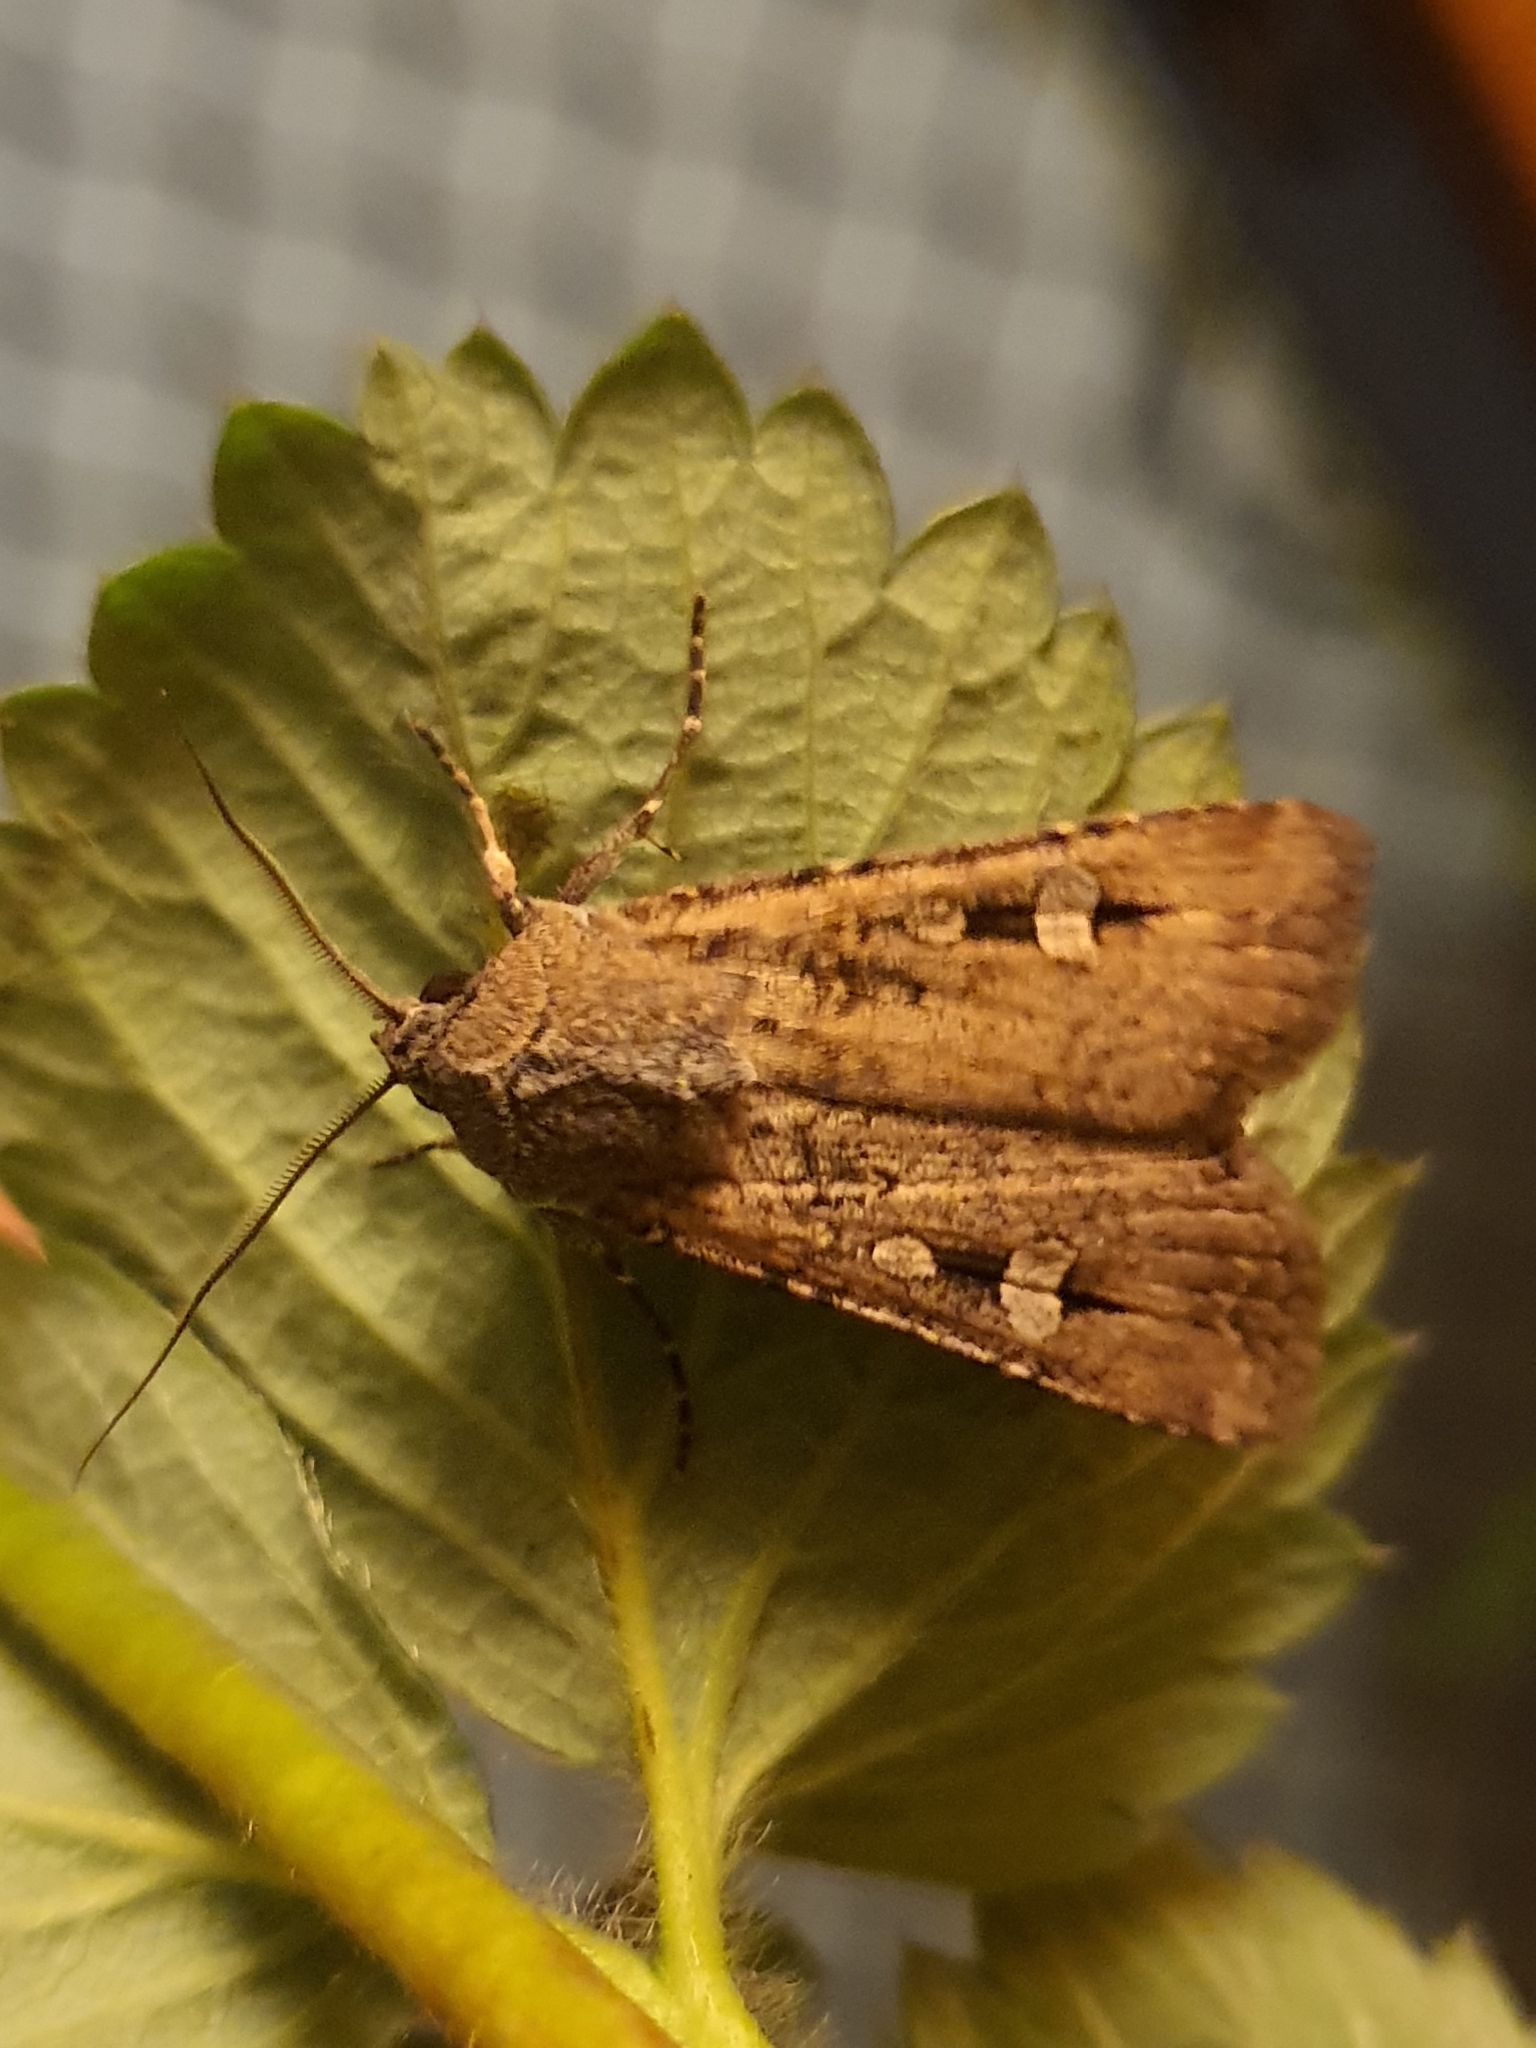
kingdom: Animalia
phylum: Arthropoda
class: Insecta
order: Lepidoptera
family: Noctuidae
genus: Agrotis
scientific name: Agrotis infusa
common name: Bogong moth
